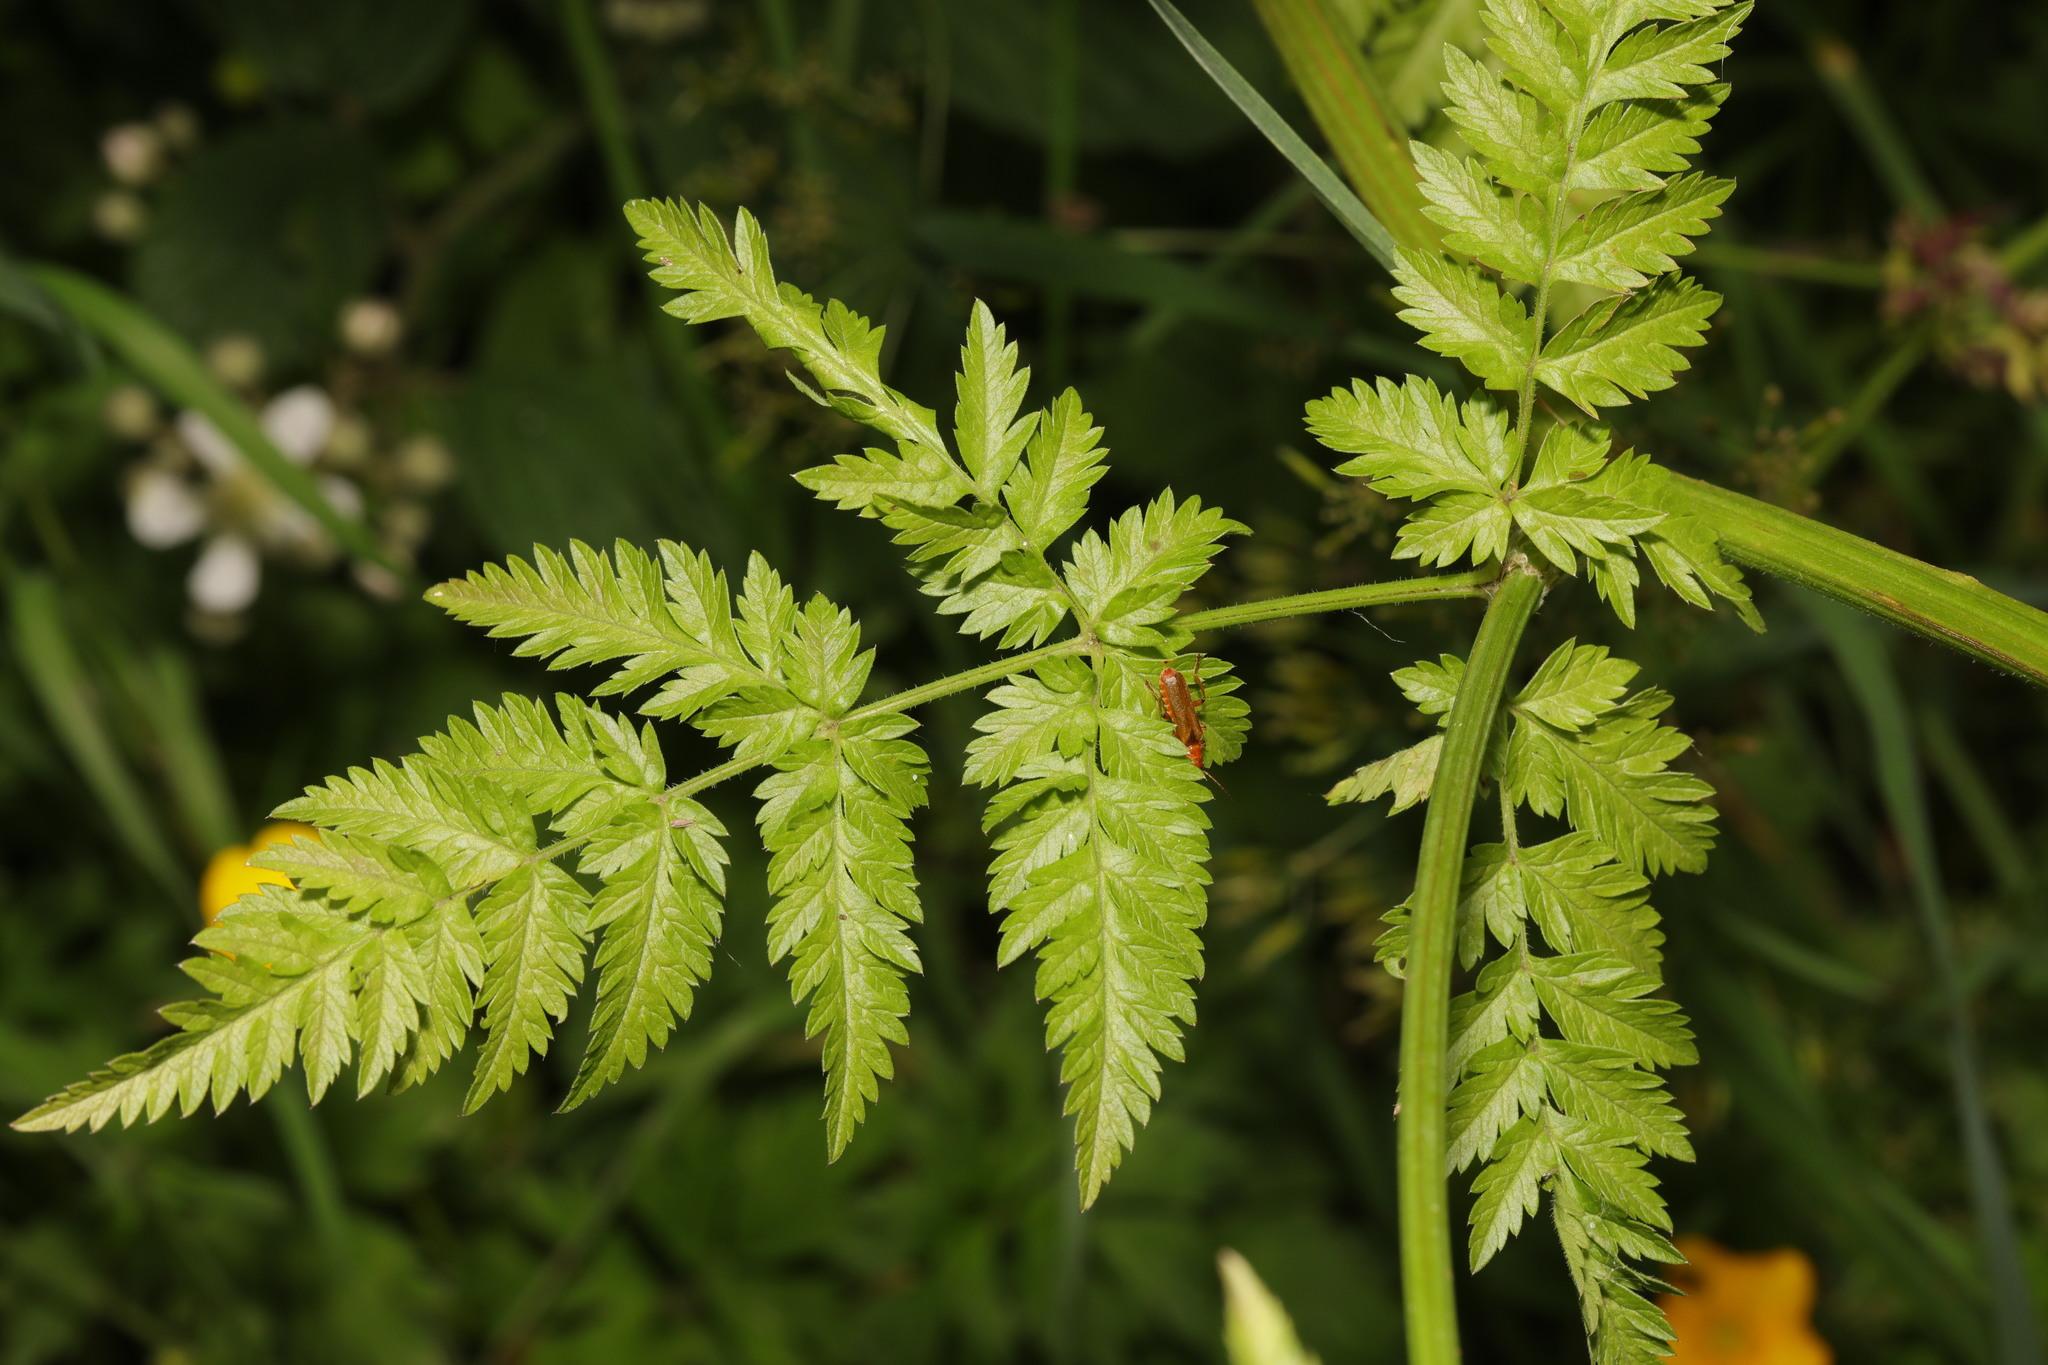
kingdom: Plantae
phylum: Tracheophyta
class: Magnoliopsida
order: Apiales
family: Apiaceae
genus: Anthriscus
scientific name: Anthriscus sylvestris
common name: Cow parsley
